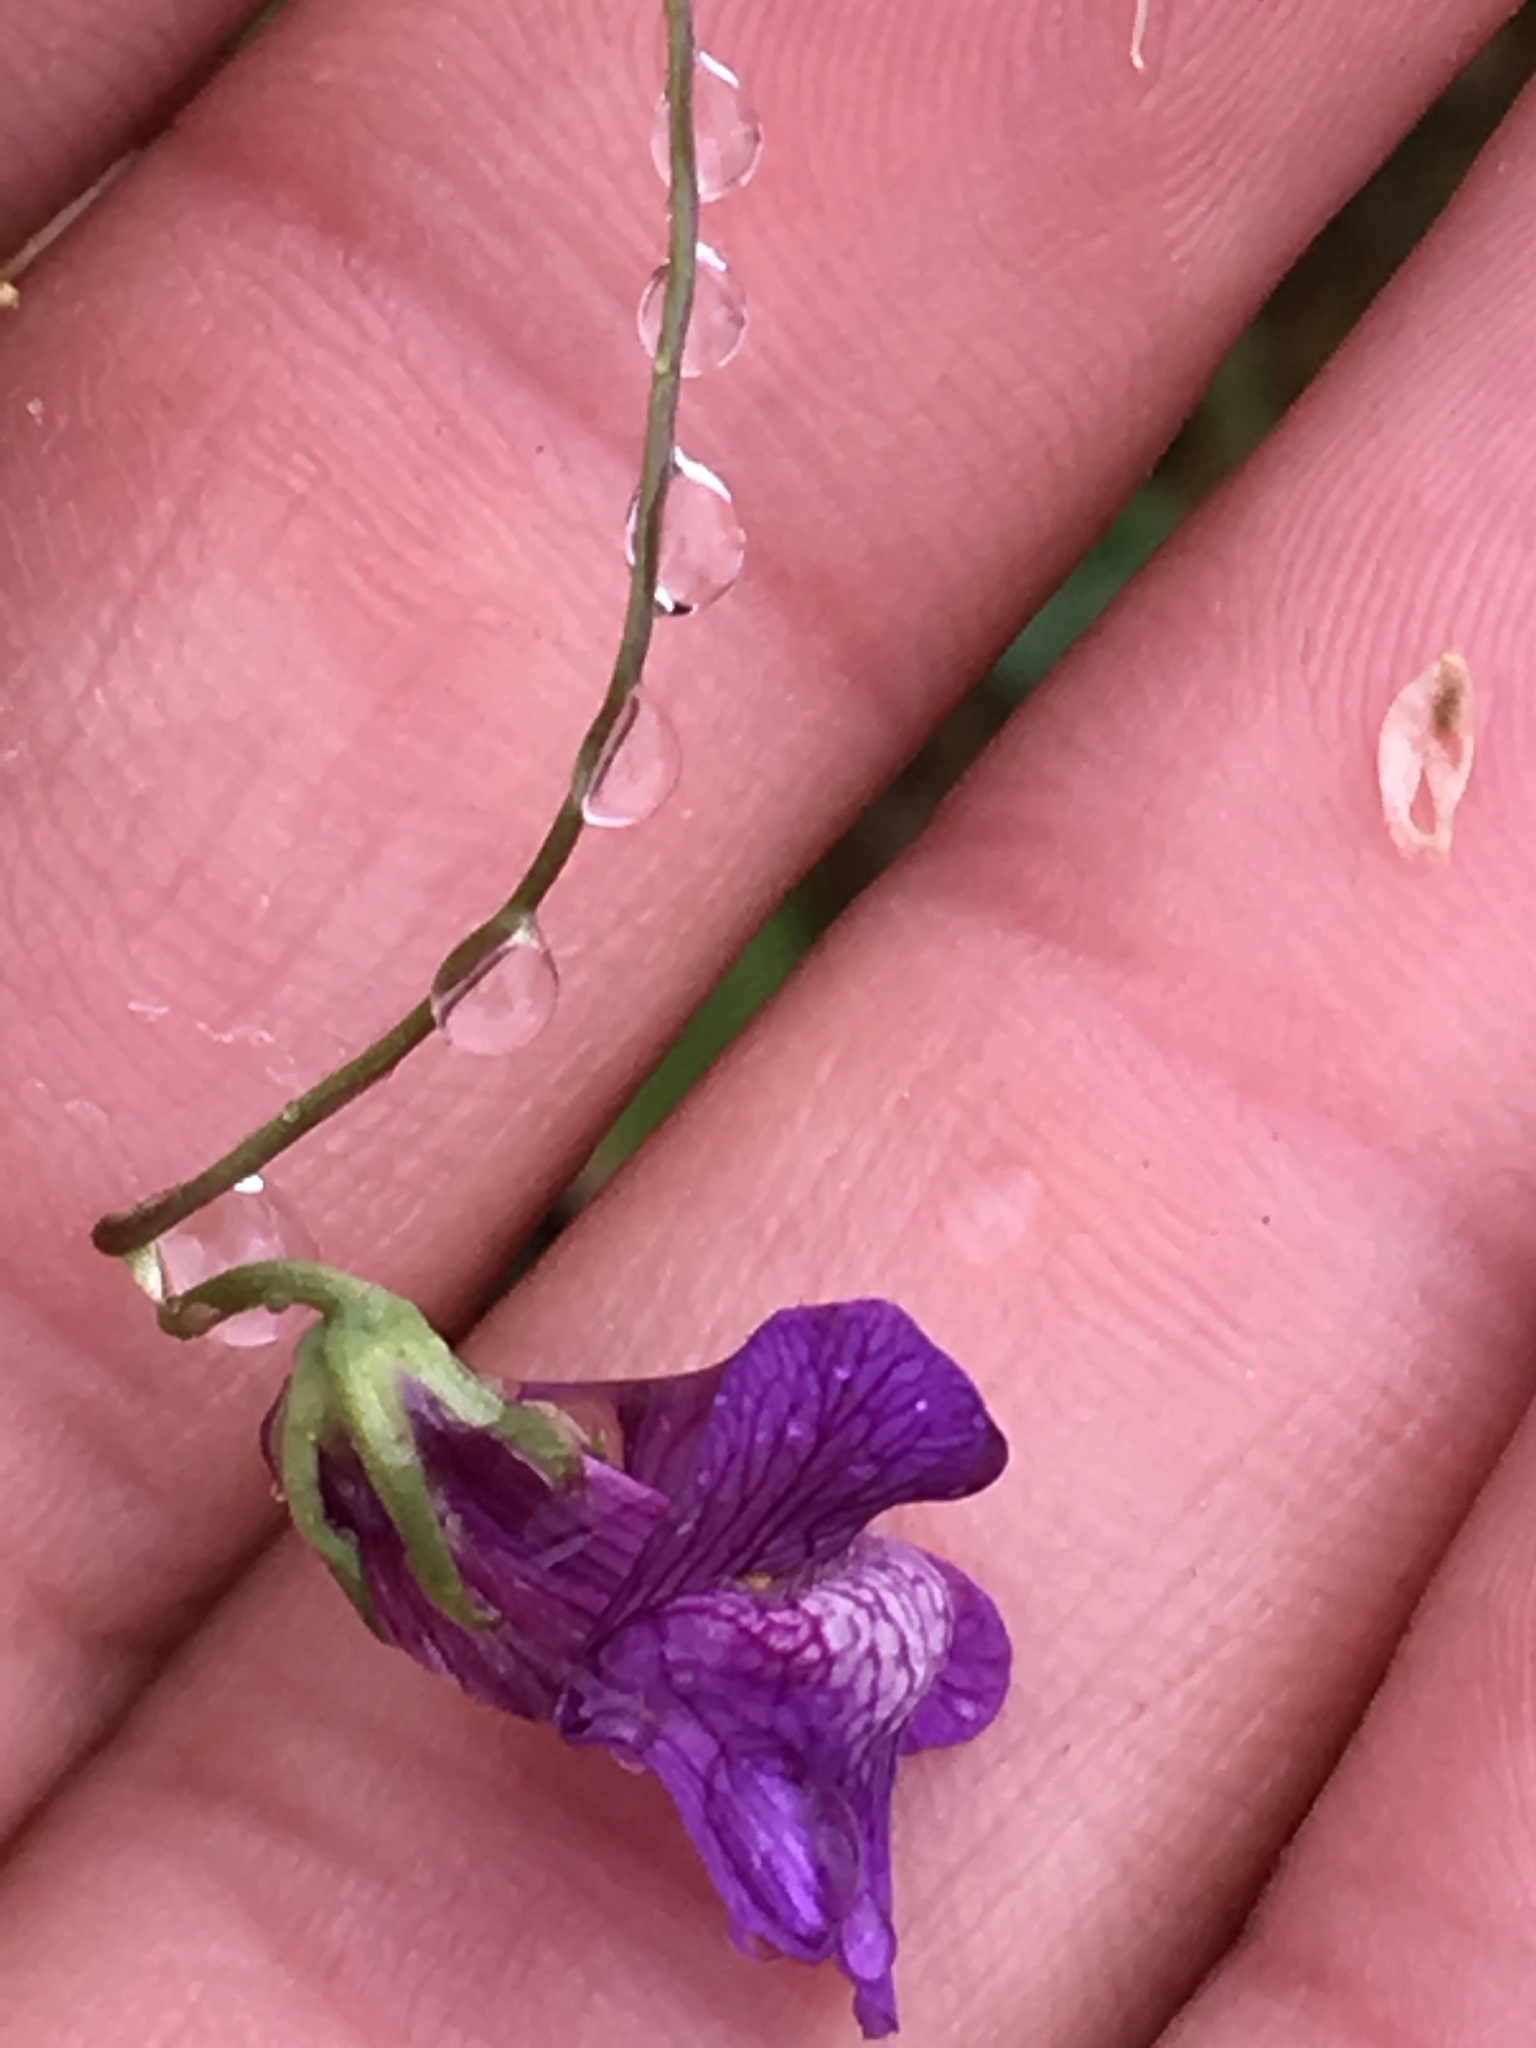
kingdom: Plantae
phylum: Tracheophyta
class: Magnoliopsida
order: Lamiales
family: Plantaginaceae
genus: Neogaerrhinum
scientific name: Neogaerrhinum strictum
